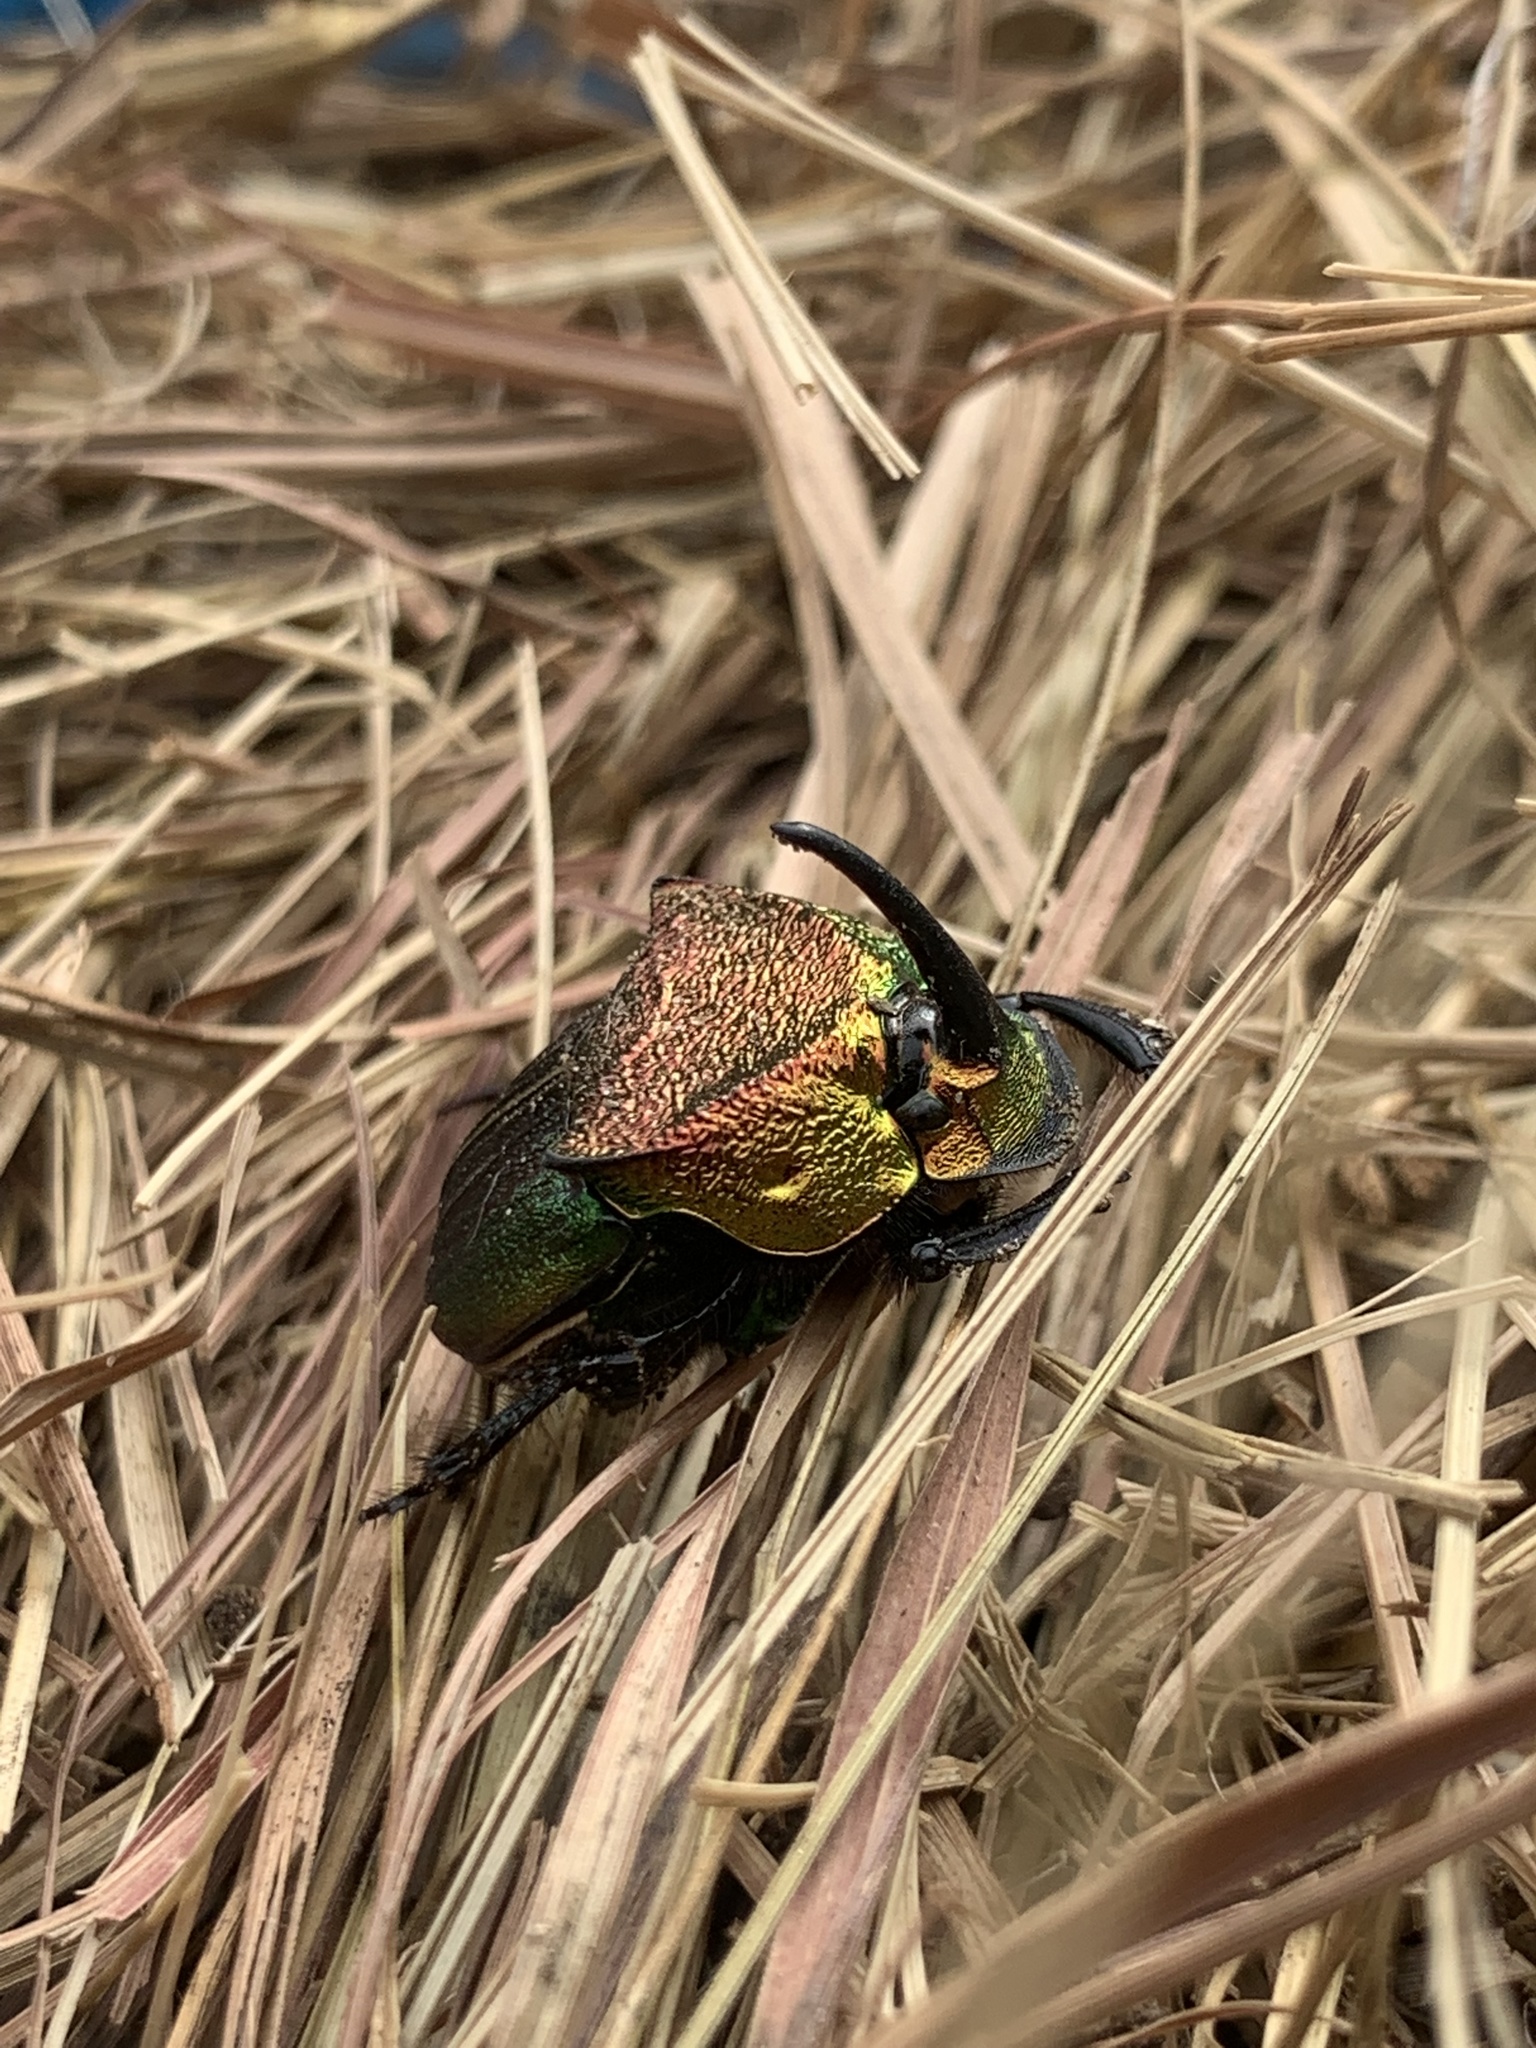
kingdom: Animalia
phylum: Arthropoda
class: Insecta
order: Coleoptera
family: Scarabaeidae
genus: Phanaeus
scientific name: Phanaeus vindex
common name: Rainbow scarab
